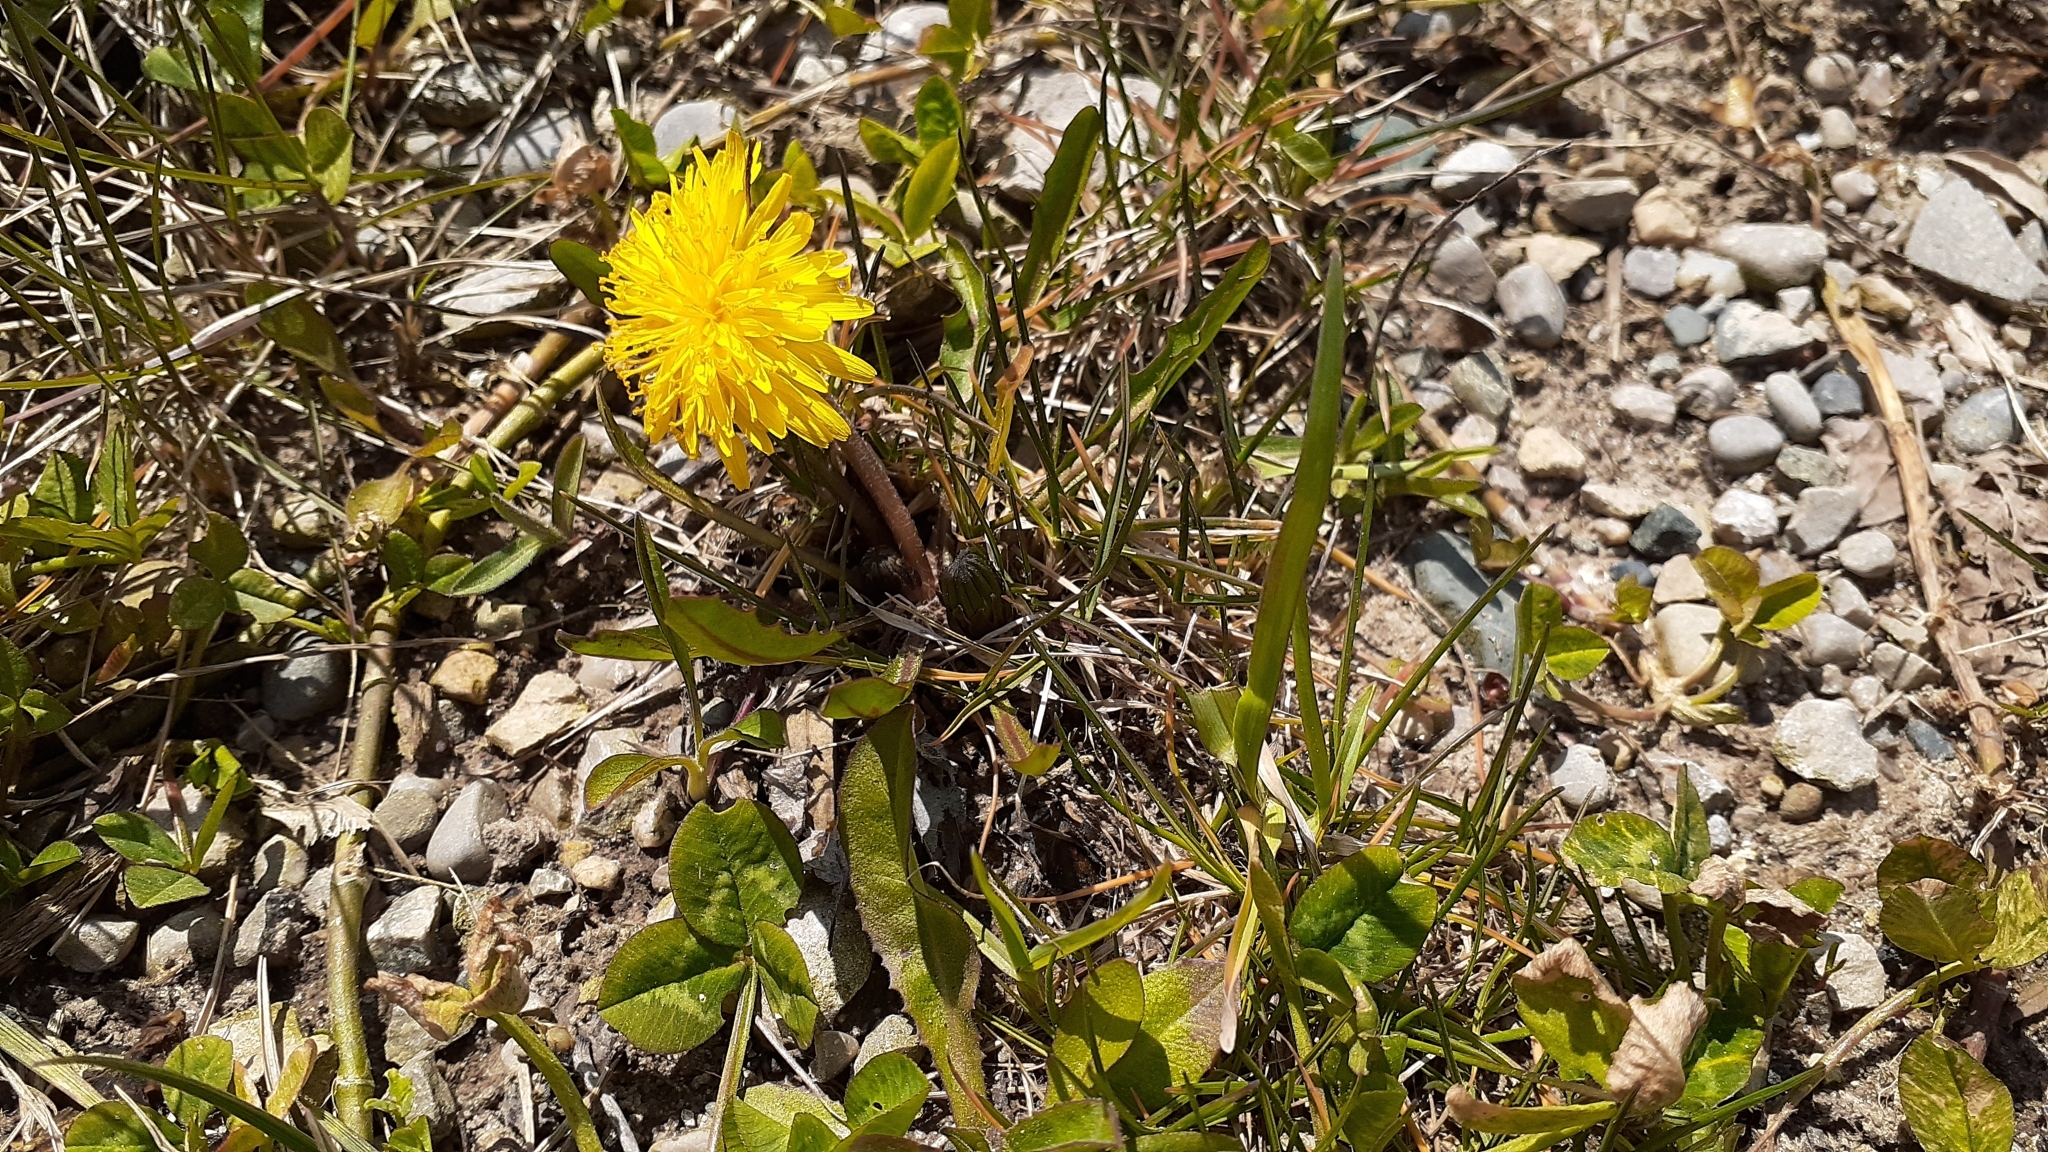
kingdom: Plantae
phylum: Tracheophyta
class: Magnoliopsida
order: Asterales
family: Asteraceae
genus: Taraxacum
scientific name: Taraxacum palustre
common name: Marsh dandelion
